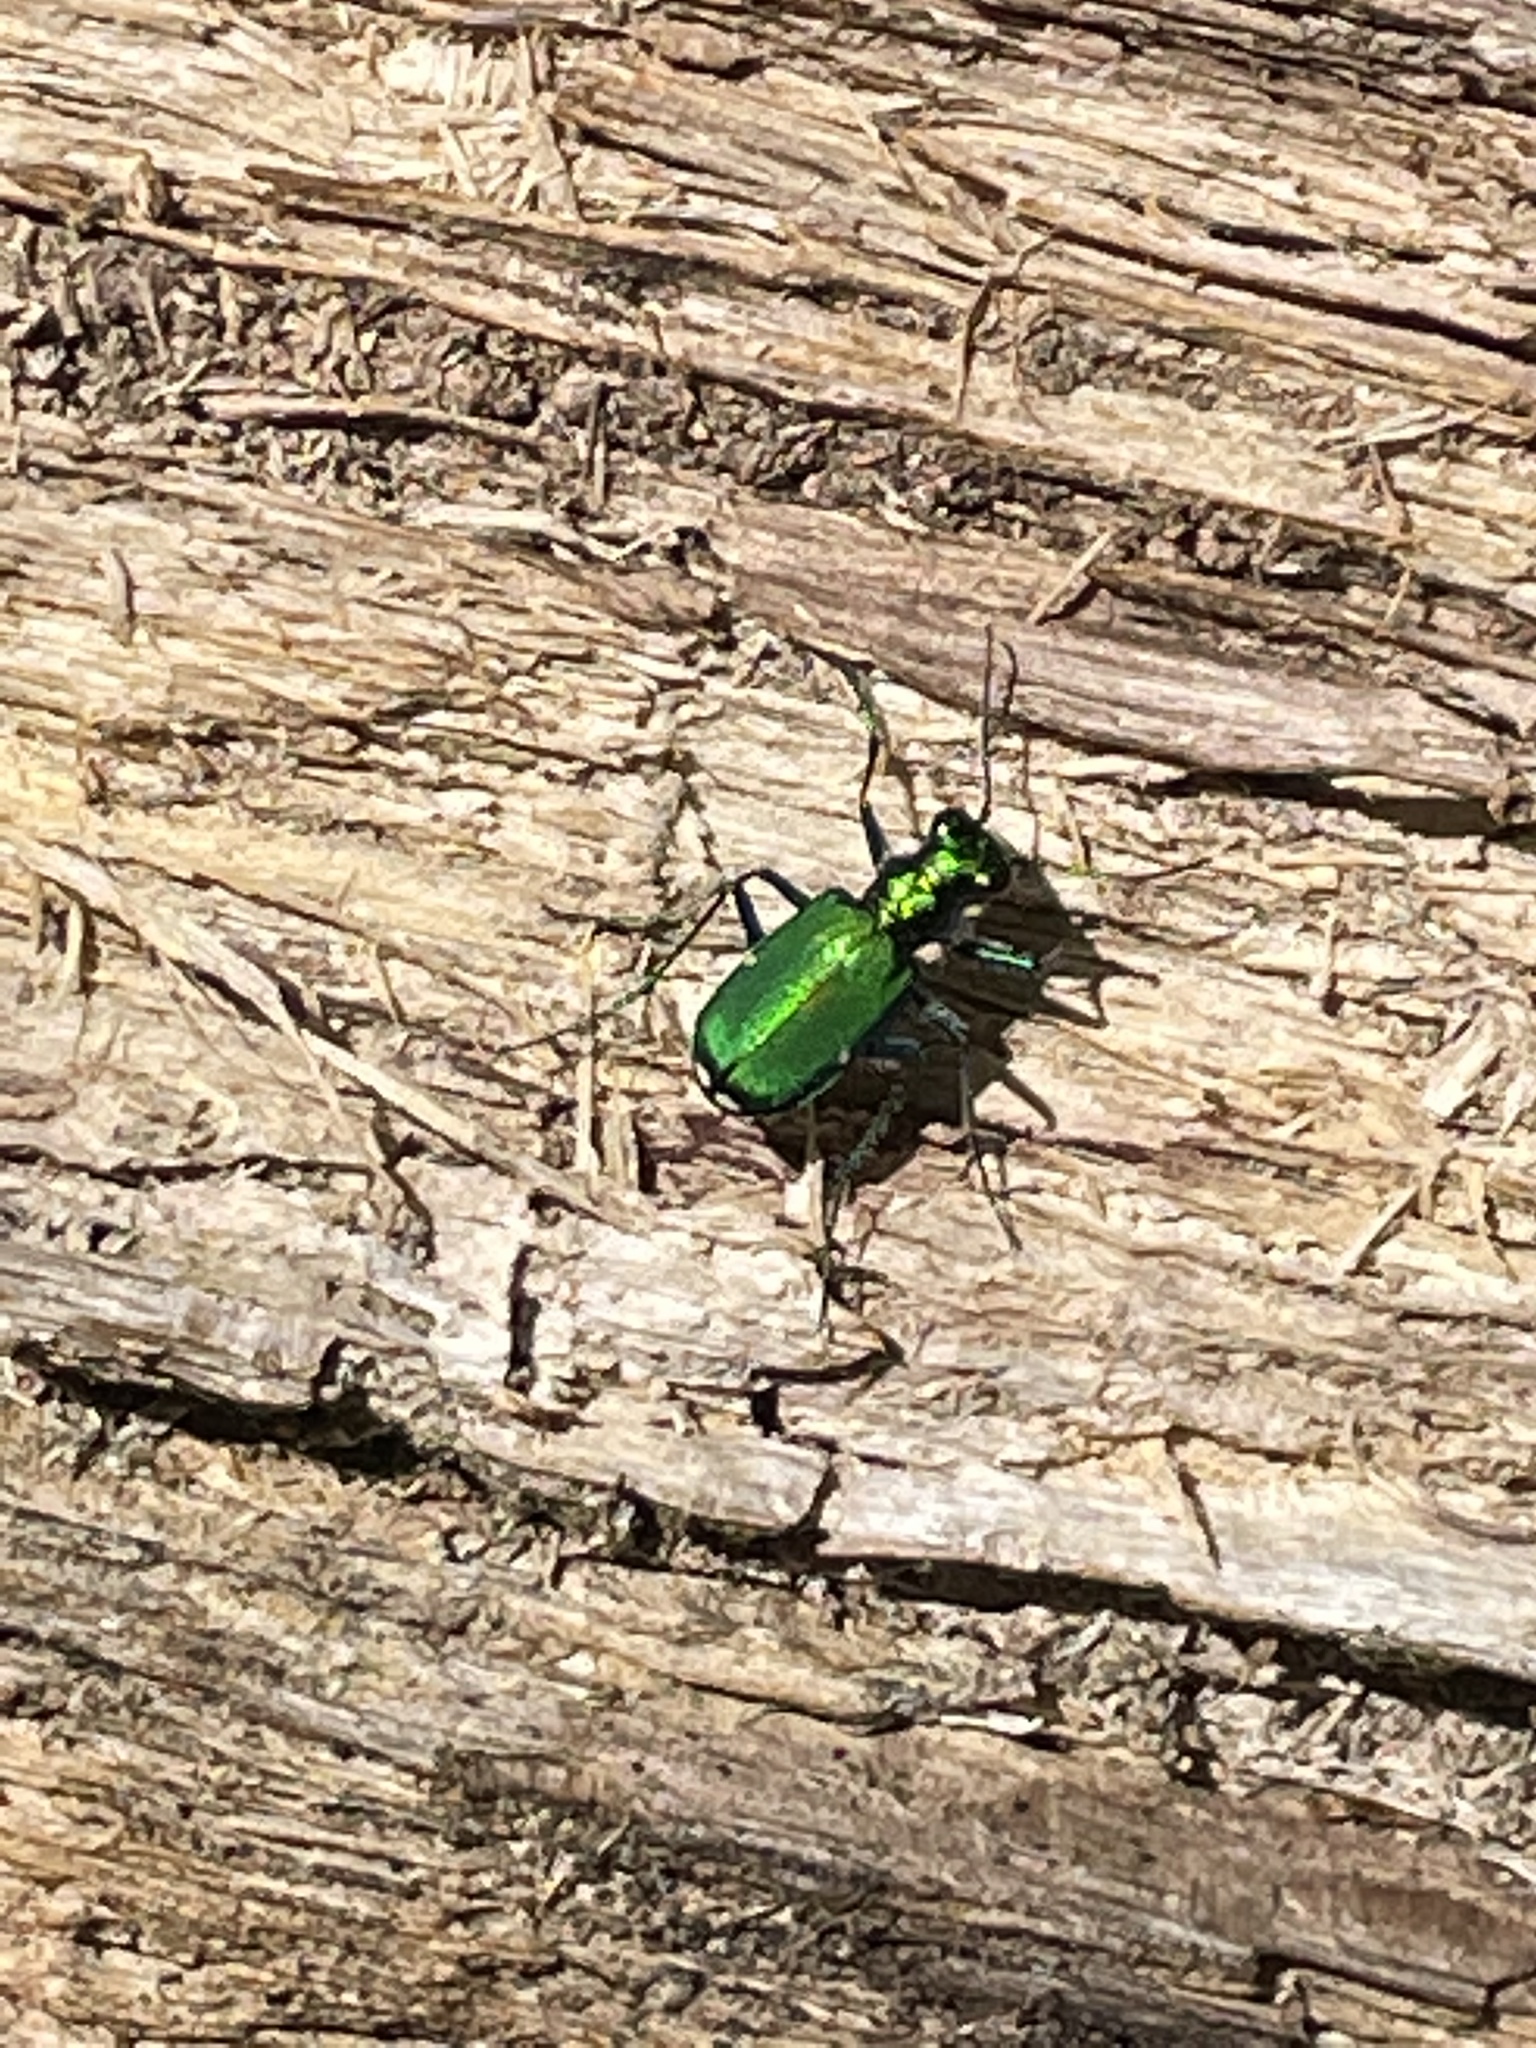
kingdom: Animalia
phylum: Arthropoda
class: Insecta
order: Coleoptera
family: Carabidae
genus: Cicindela
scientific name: Cicindela sexguttata
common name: Six-spotted tiger beetle
